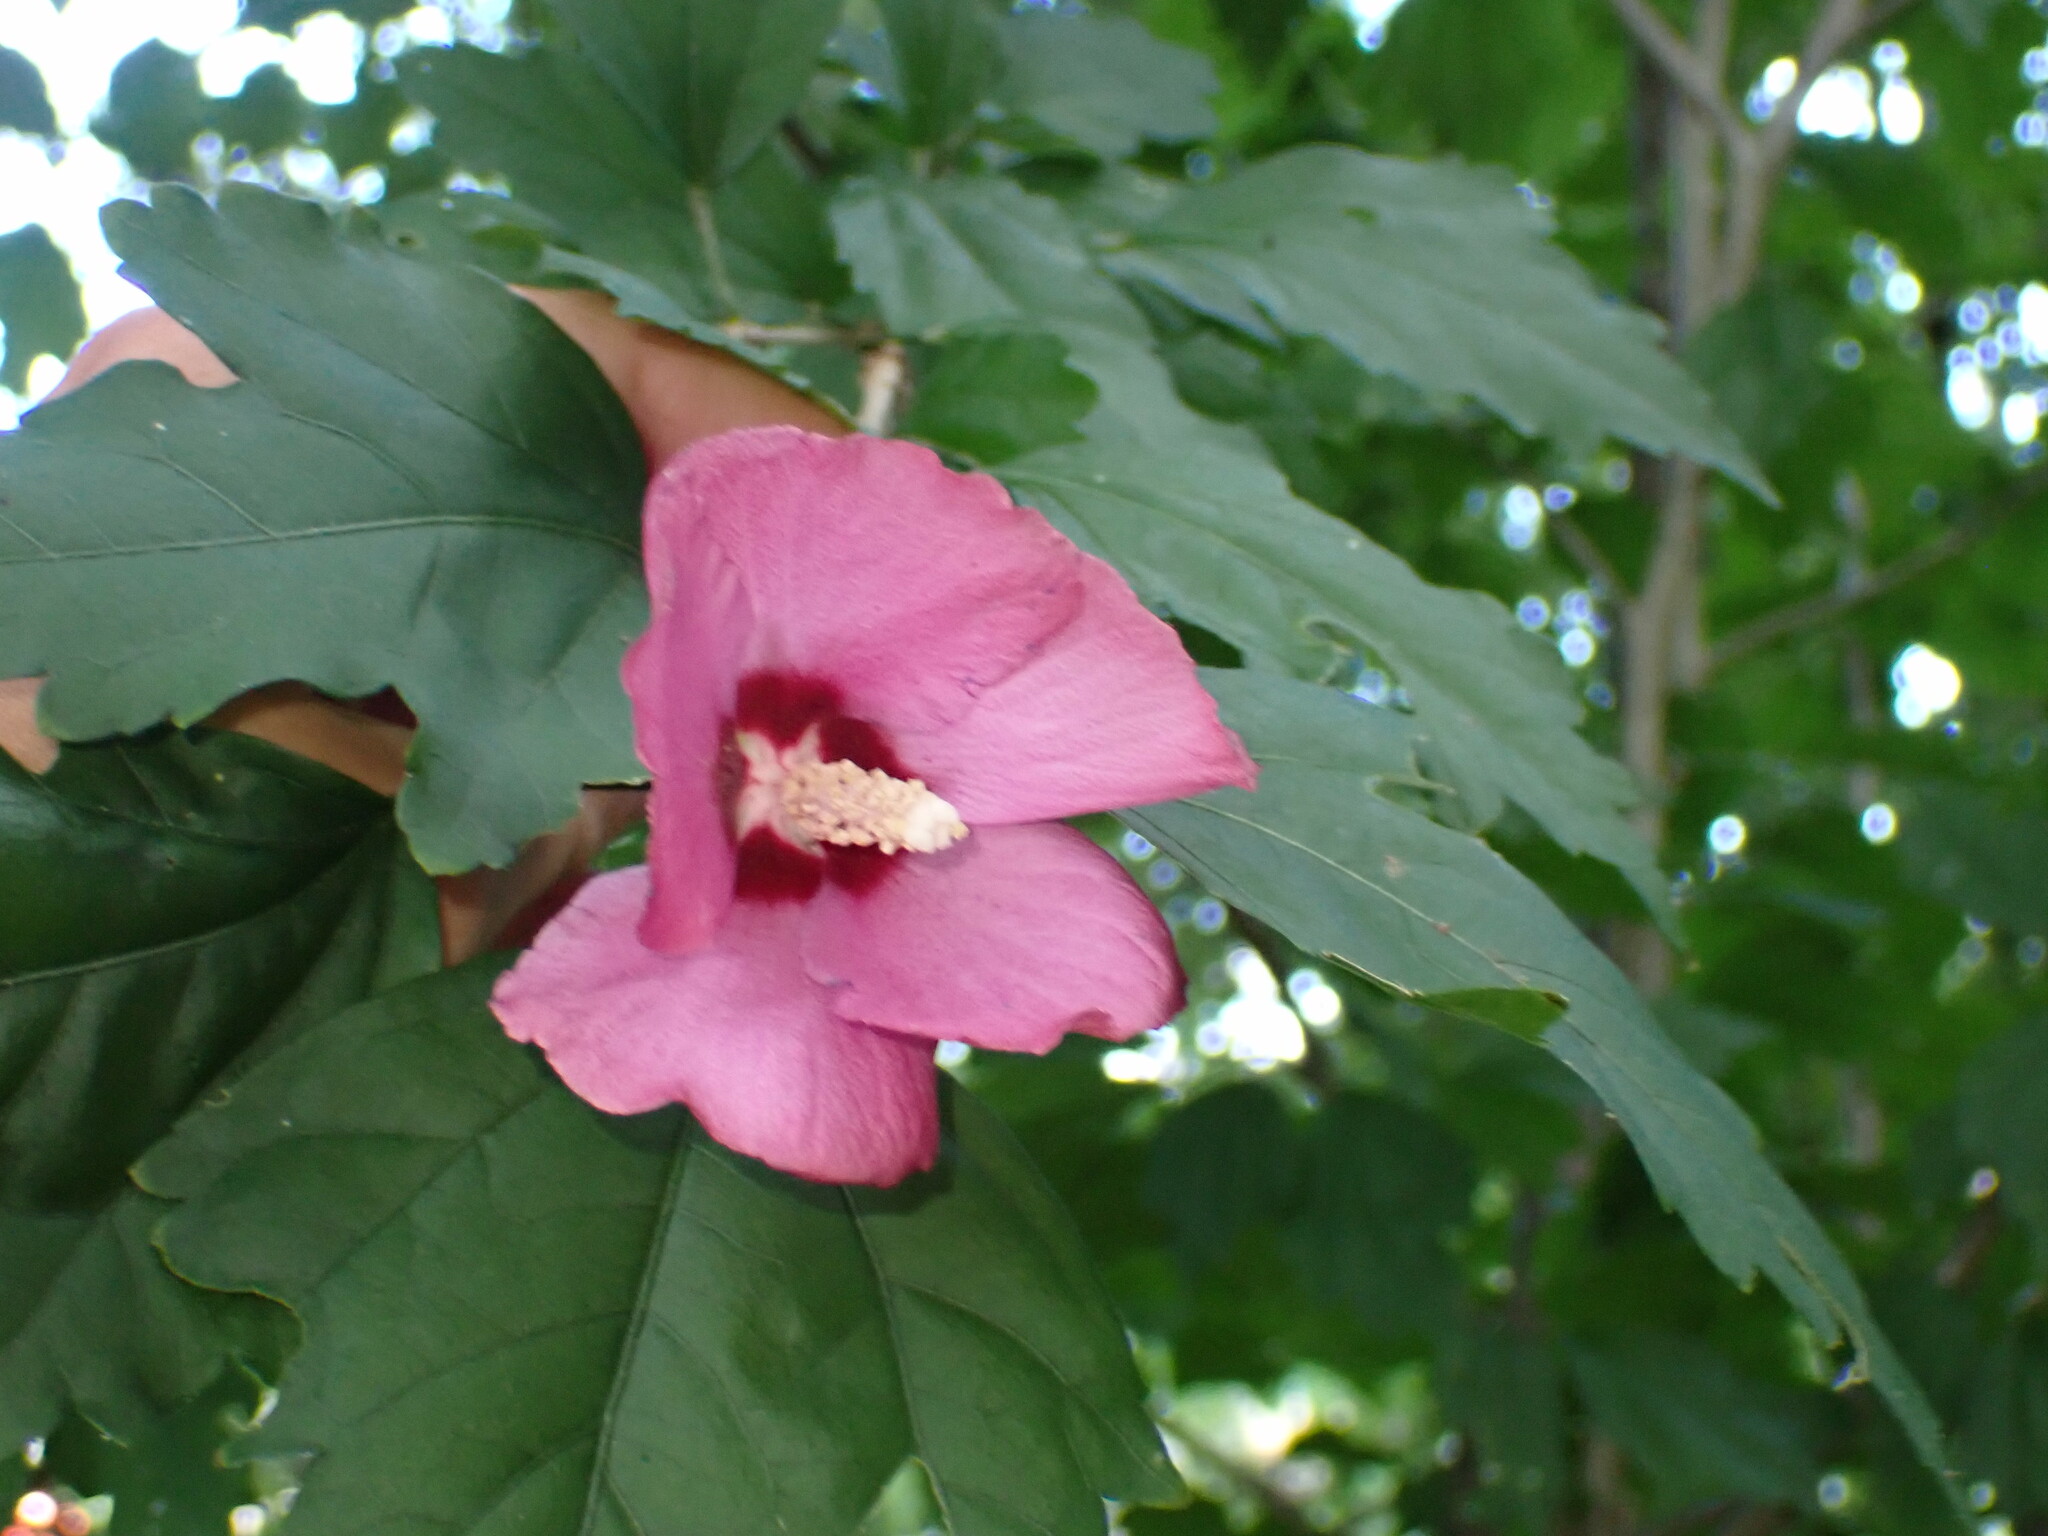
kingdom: Plantae
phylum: Tracheophyta
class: Magnoliopsida
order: Malvales
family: Malvaceae
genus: Hibiscus
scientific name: Hibiscus syriacus
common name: Syrian ketmia
